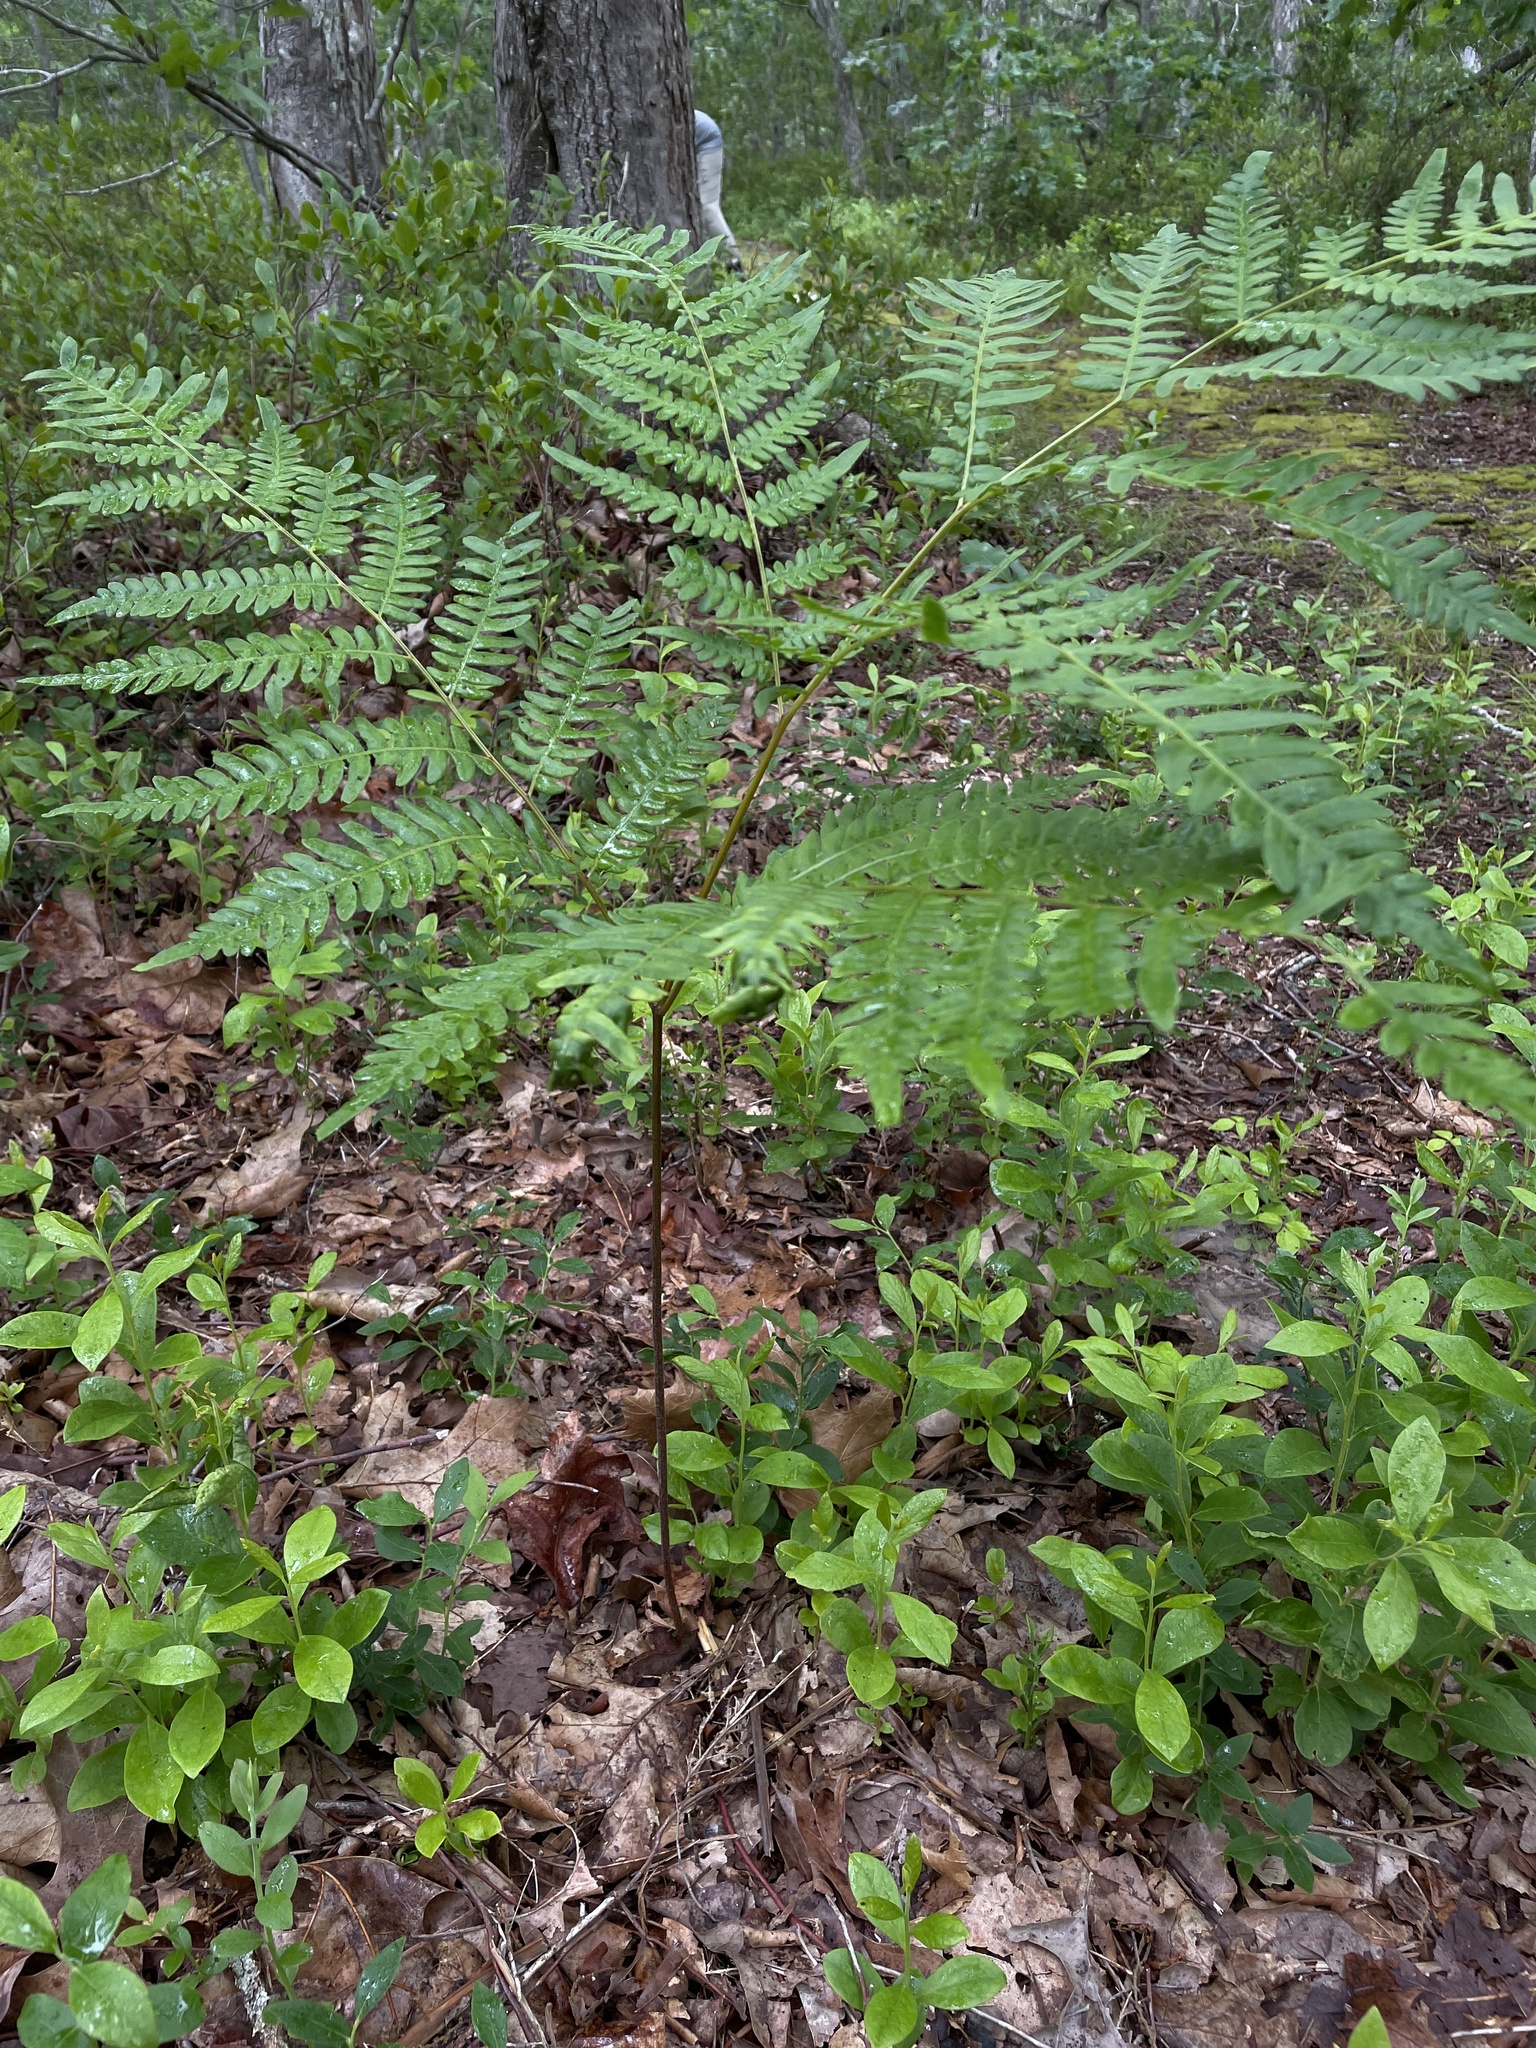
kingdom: Plantae
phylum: Tracheophyta
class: Polypodiopsida
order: Polypodiales
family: Dennstaedtiaceae
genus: Pteridium
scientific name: Pteridium aquilinum
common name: Bracken
